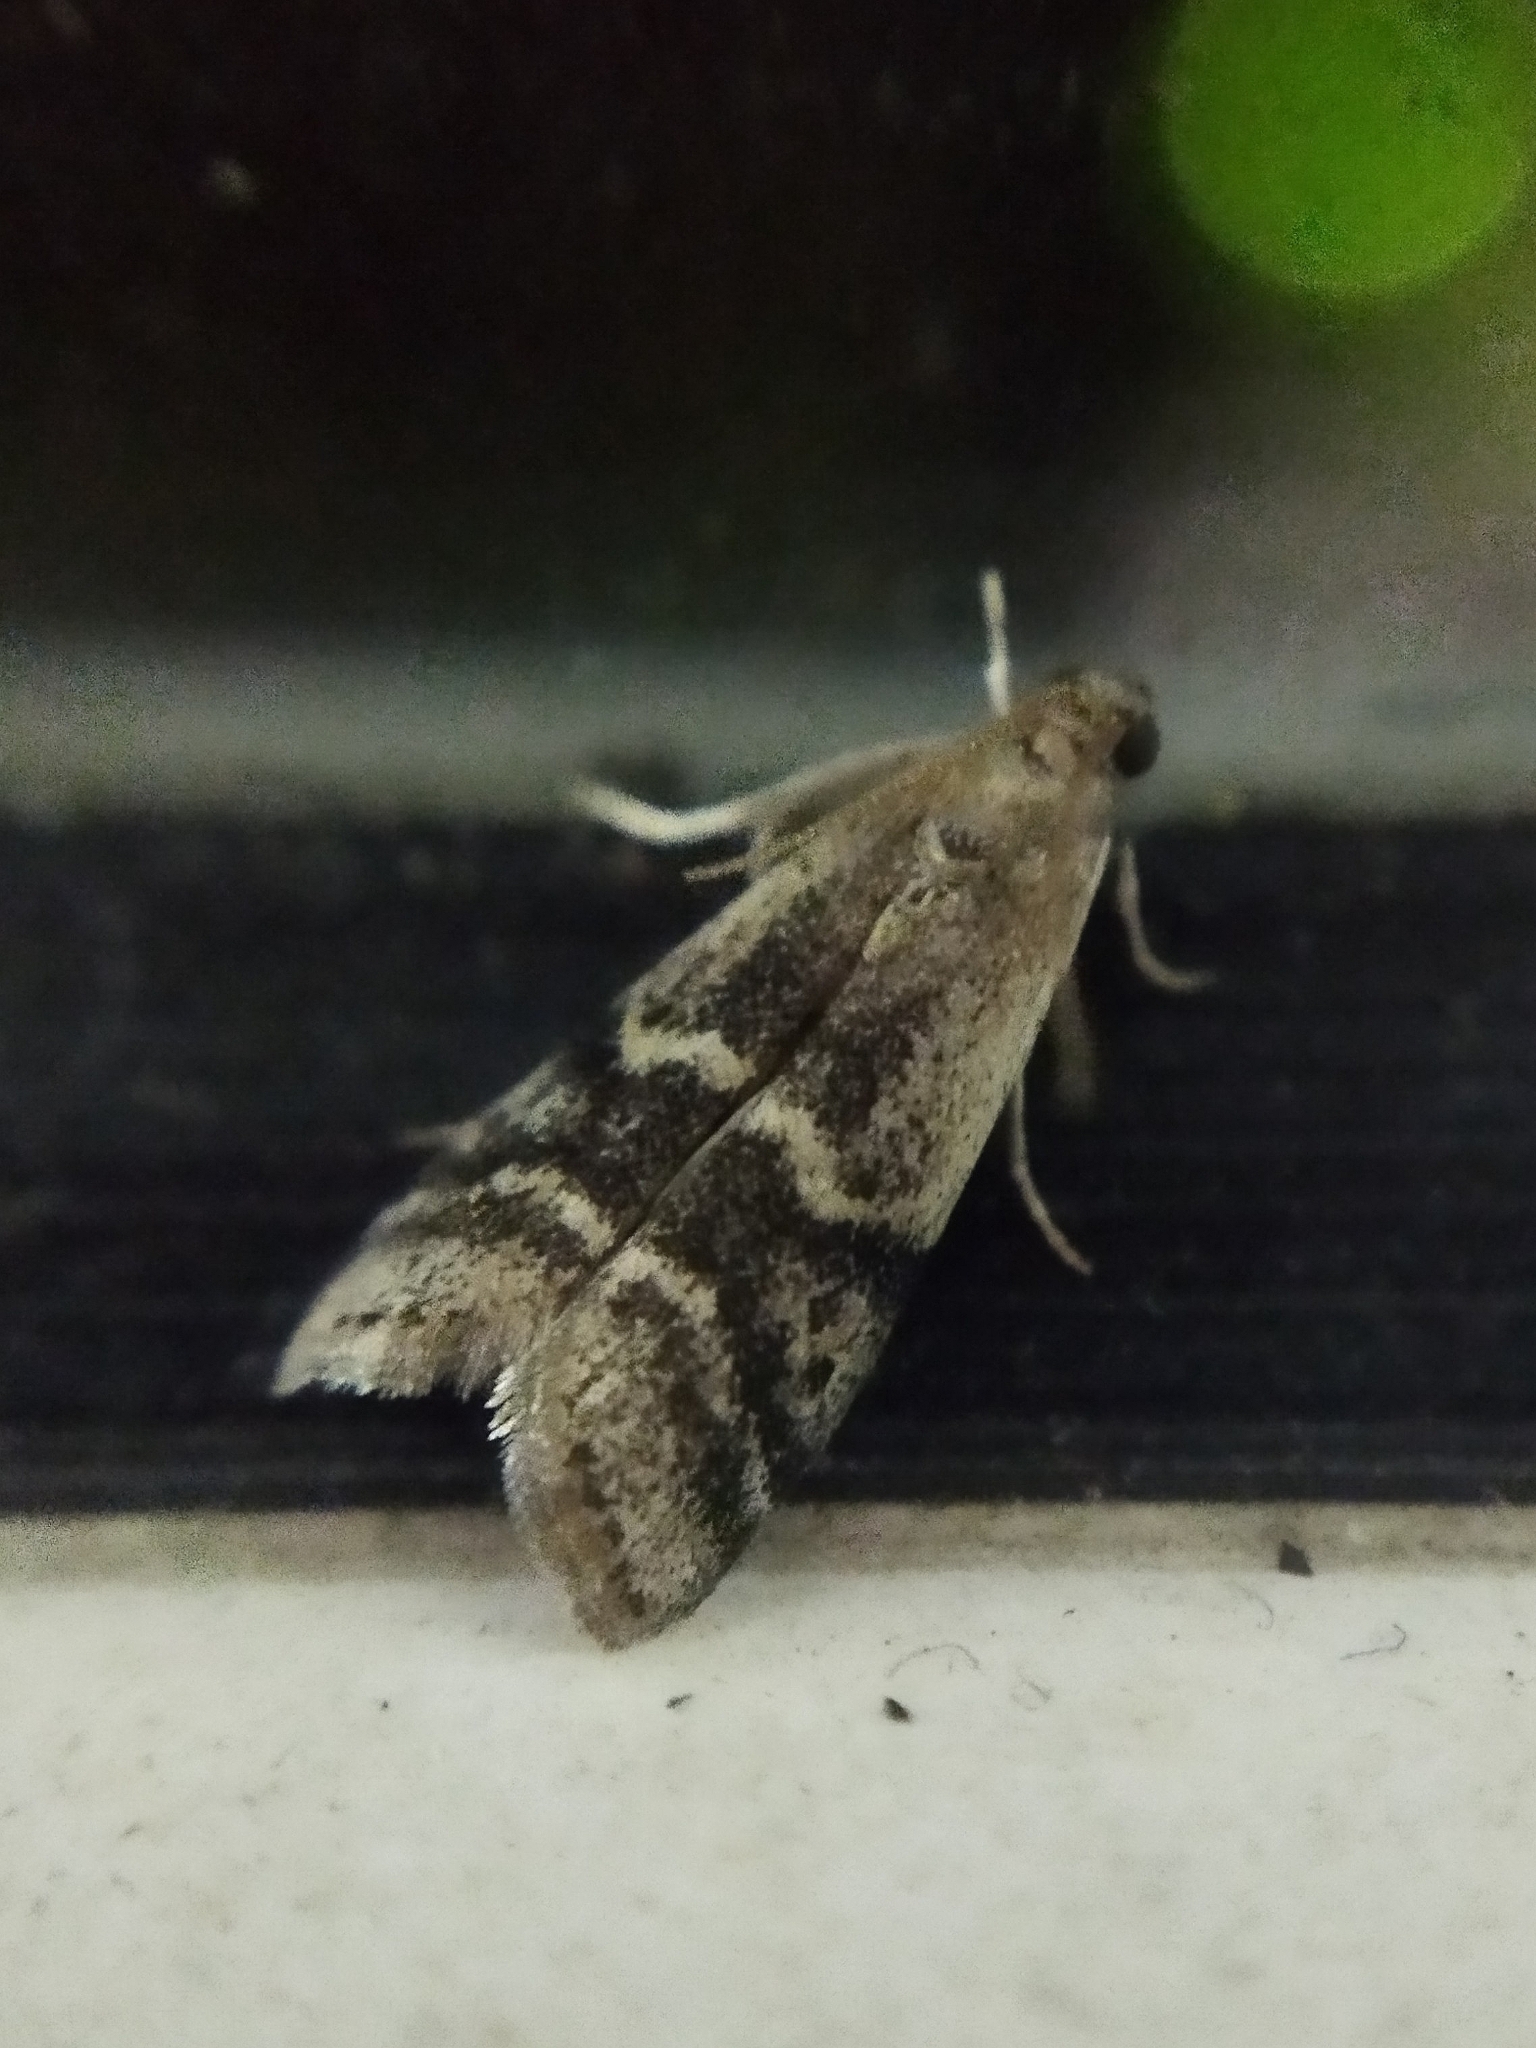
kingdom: Animalia
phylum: Arthropoda
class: Insecta
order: Lepidoptera
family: Pyralidae
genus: Euzophera
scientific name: Euzophera bigella
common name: Peach knot-horn
